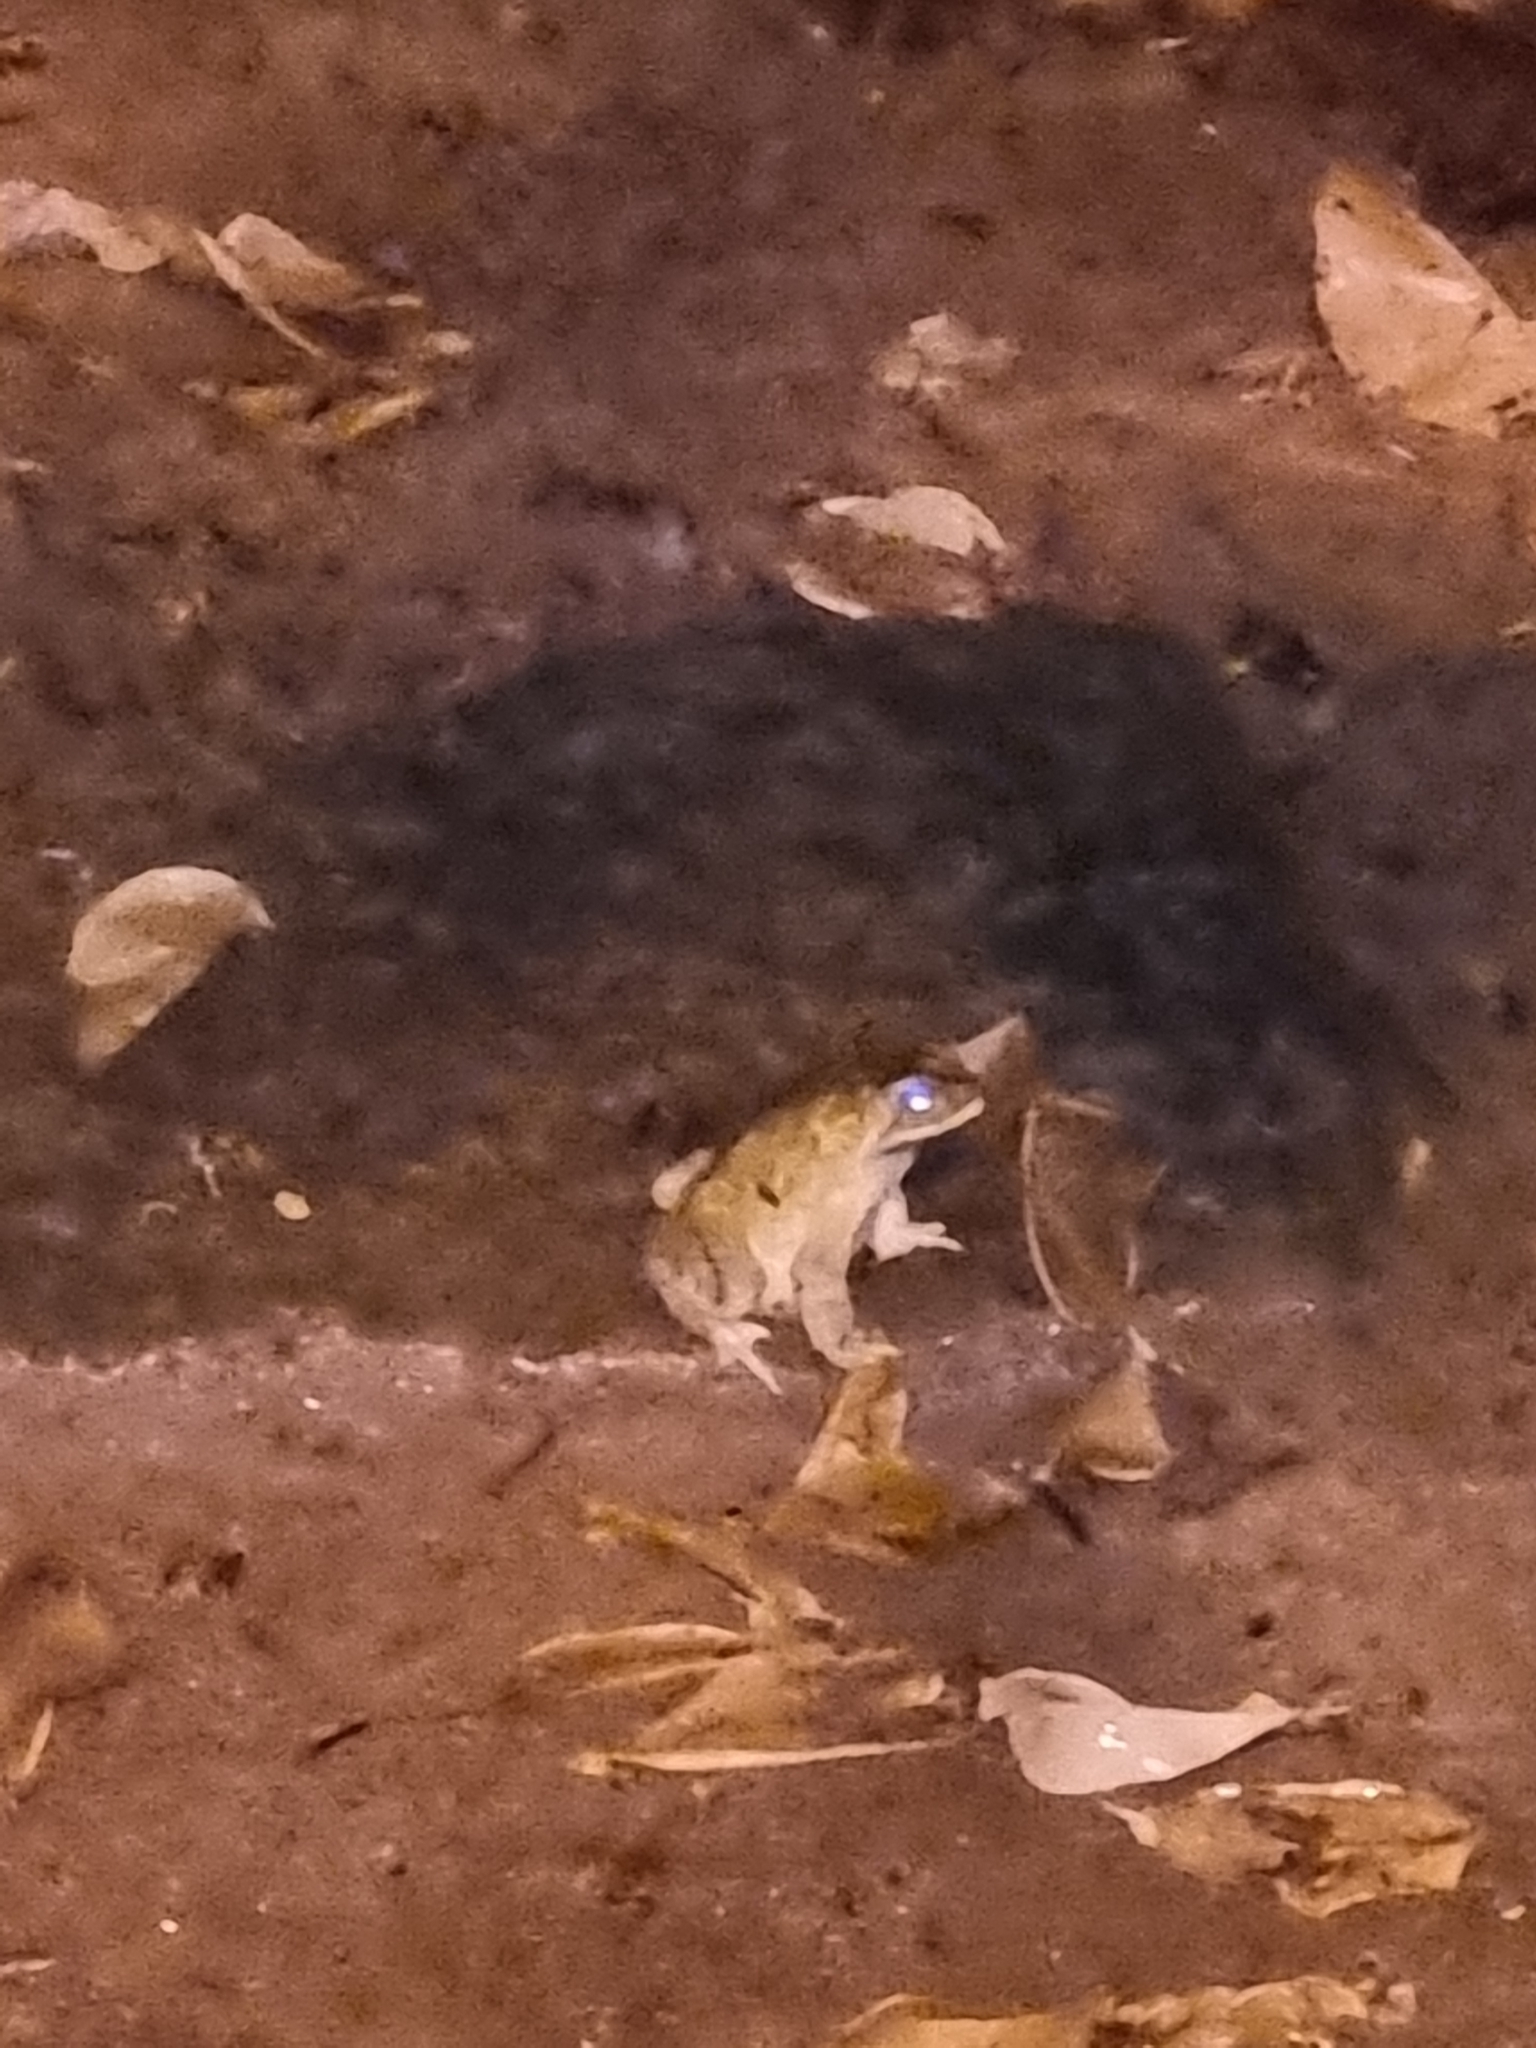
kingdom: Animalia
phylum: Chordata
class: Amphibia
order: Anura
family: Bufonidae
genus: Duttaphrynus
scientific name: Duttaphrynus melanostictus
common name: Common sunda toad
